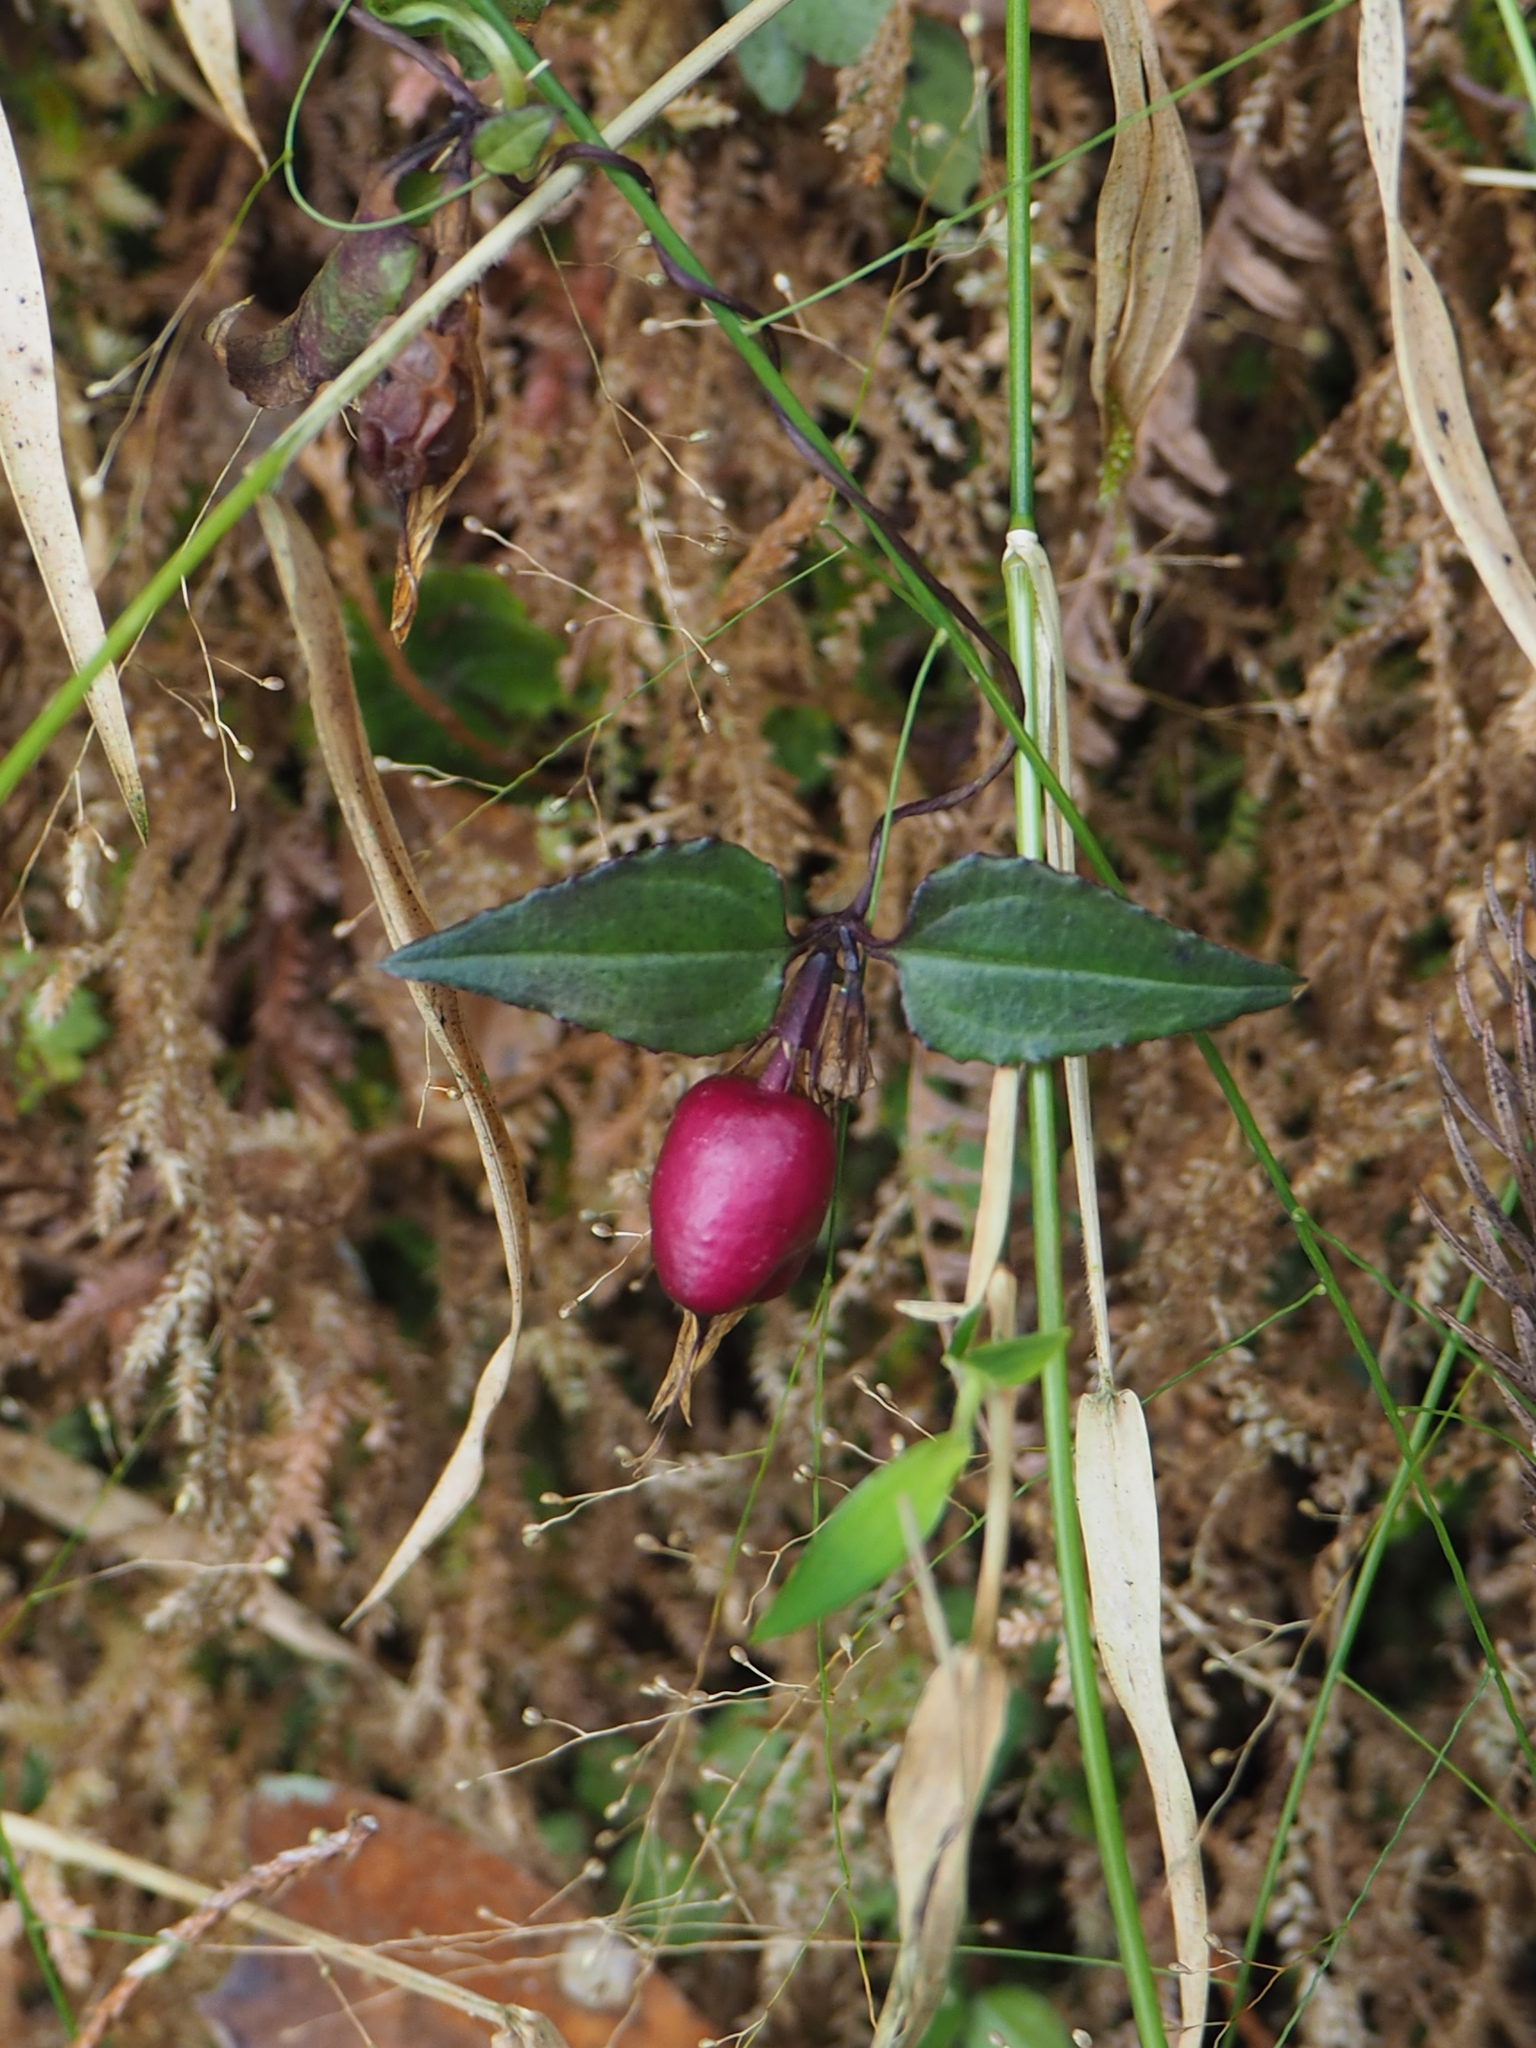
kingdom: Plantae
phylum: Tracheophyta
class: Magnoliopsida
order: Gentianales
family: Gentianaceae
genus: Tripterospermum
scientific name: Tripterospermum luzonense
